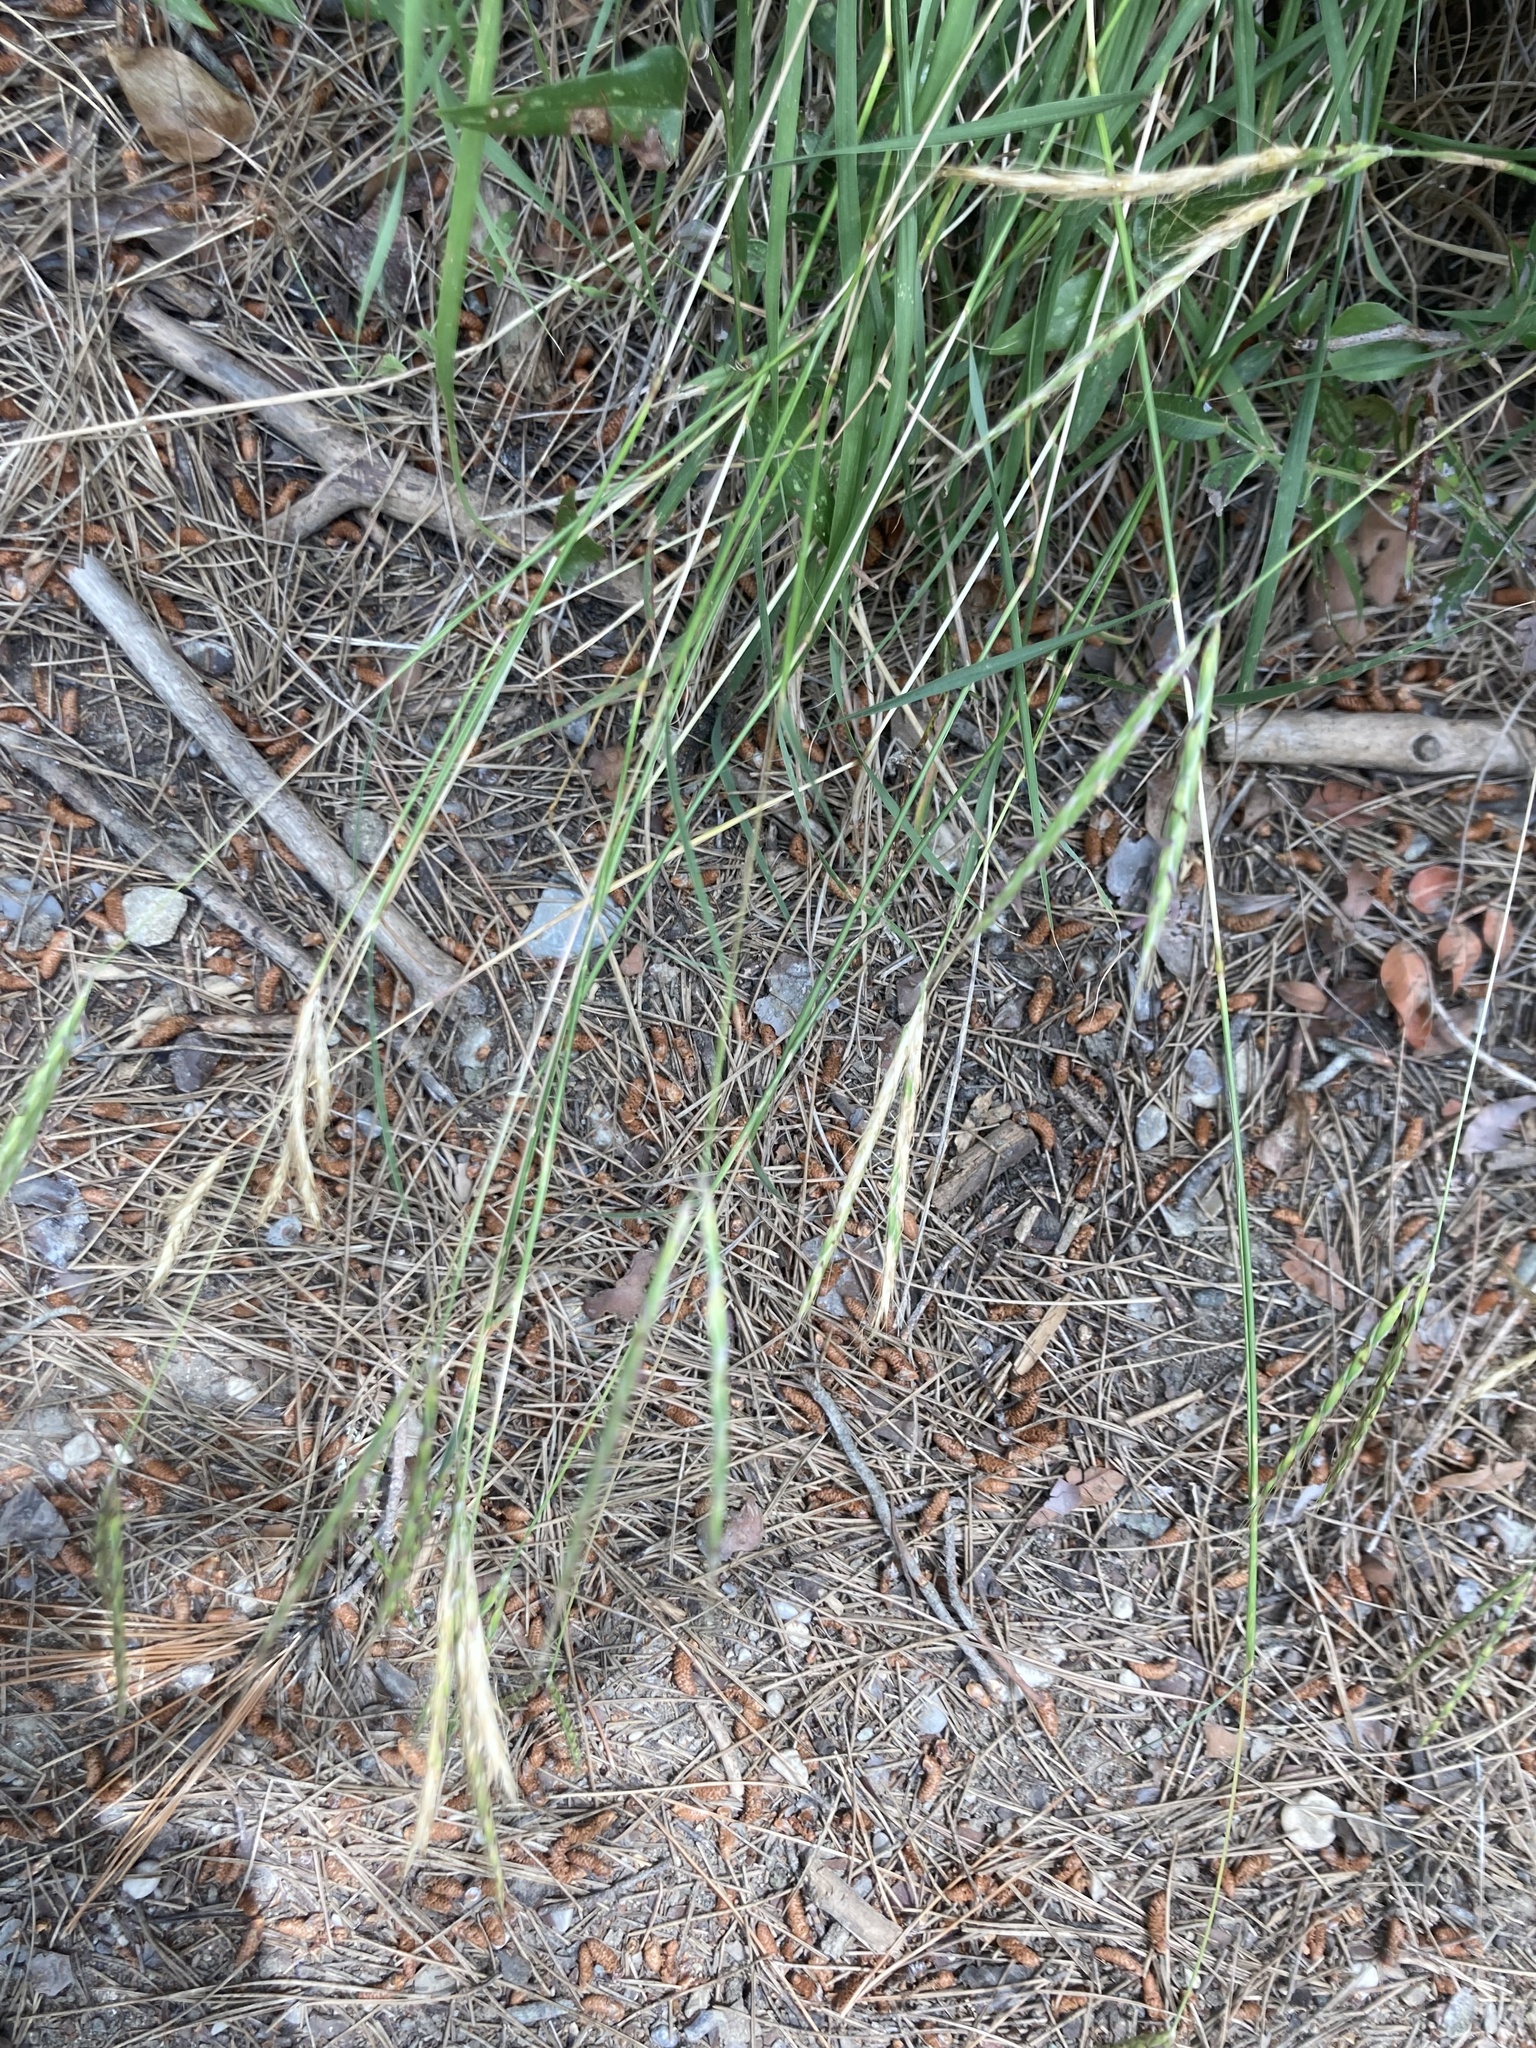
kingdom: Plantae
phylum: Tracheophyta
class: Liliopsida
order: Poales
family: Poaceae
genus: Andropogon
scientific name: Andropogon distachyos
